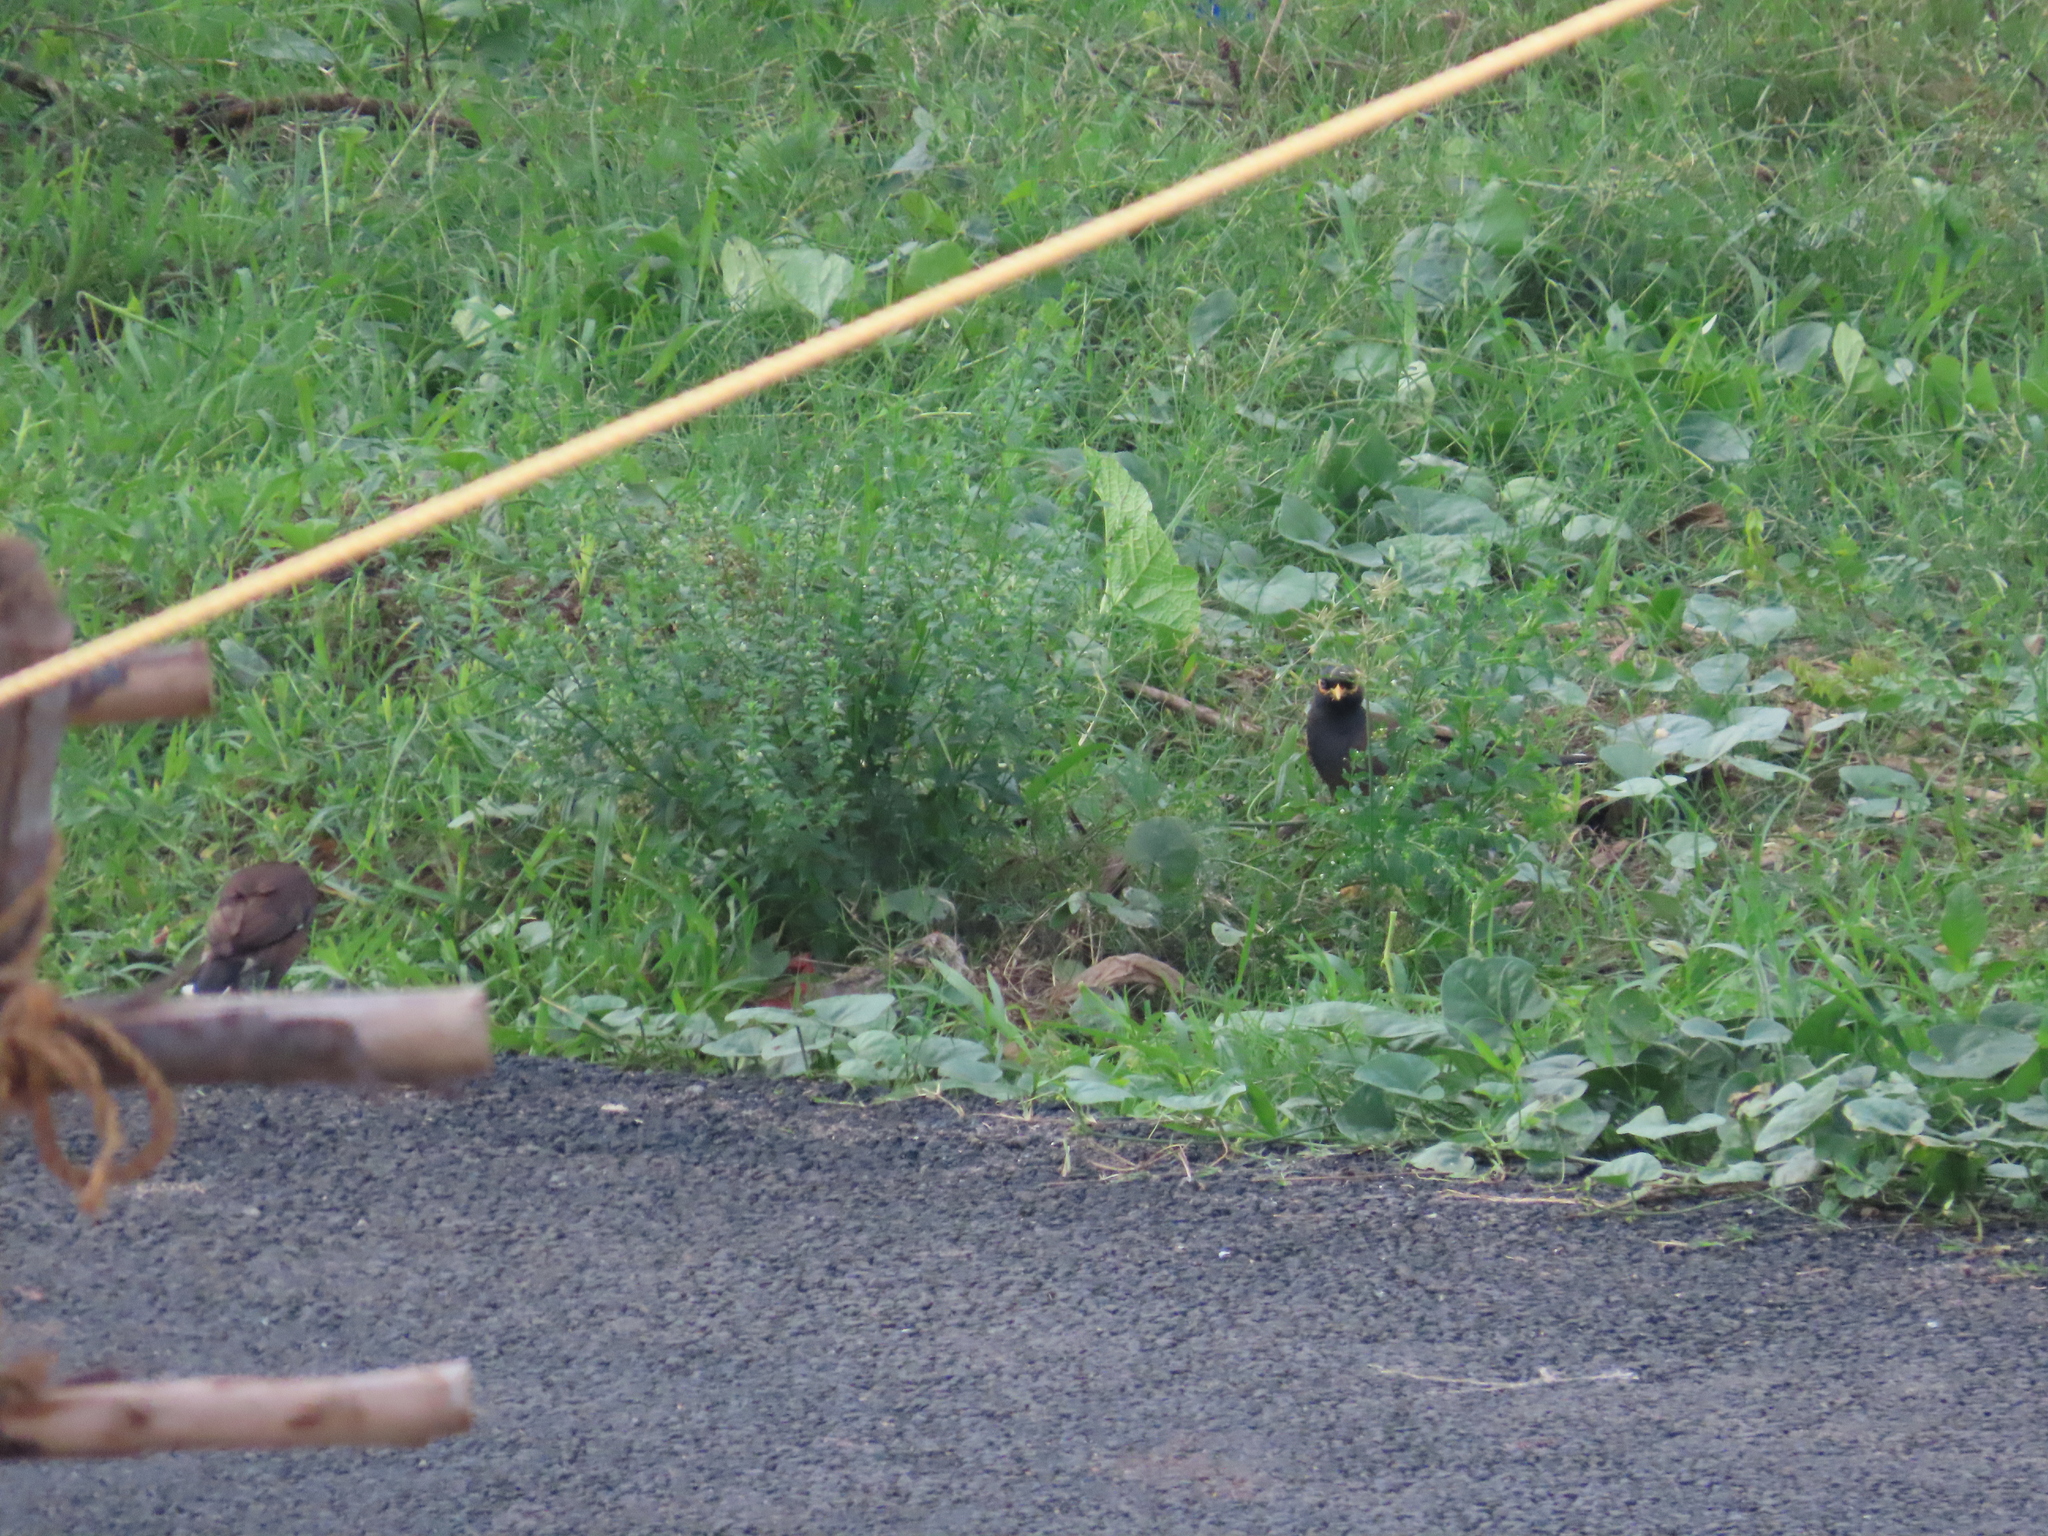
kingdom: Animalia
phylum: Chordata
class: Aves
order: Passeriformes
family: Sturnidae
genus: Acridotheres
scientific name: Acridotheres tristis
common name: Common myna
